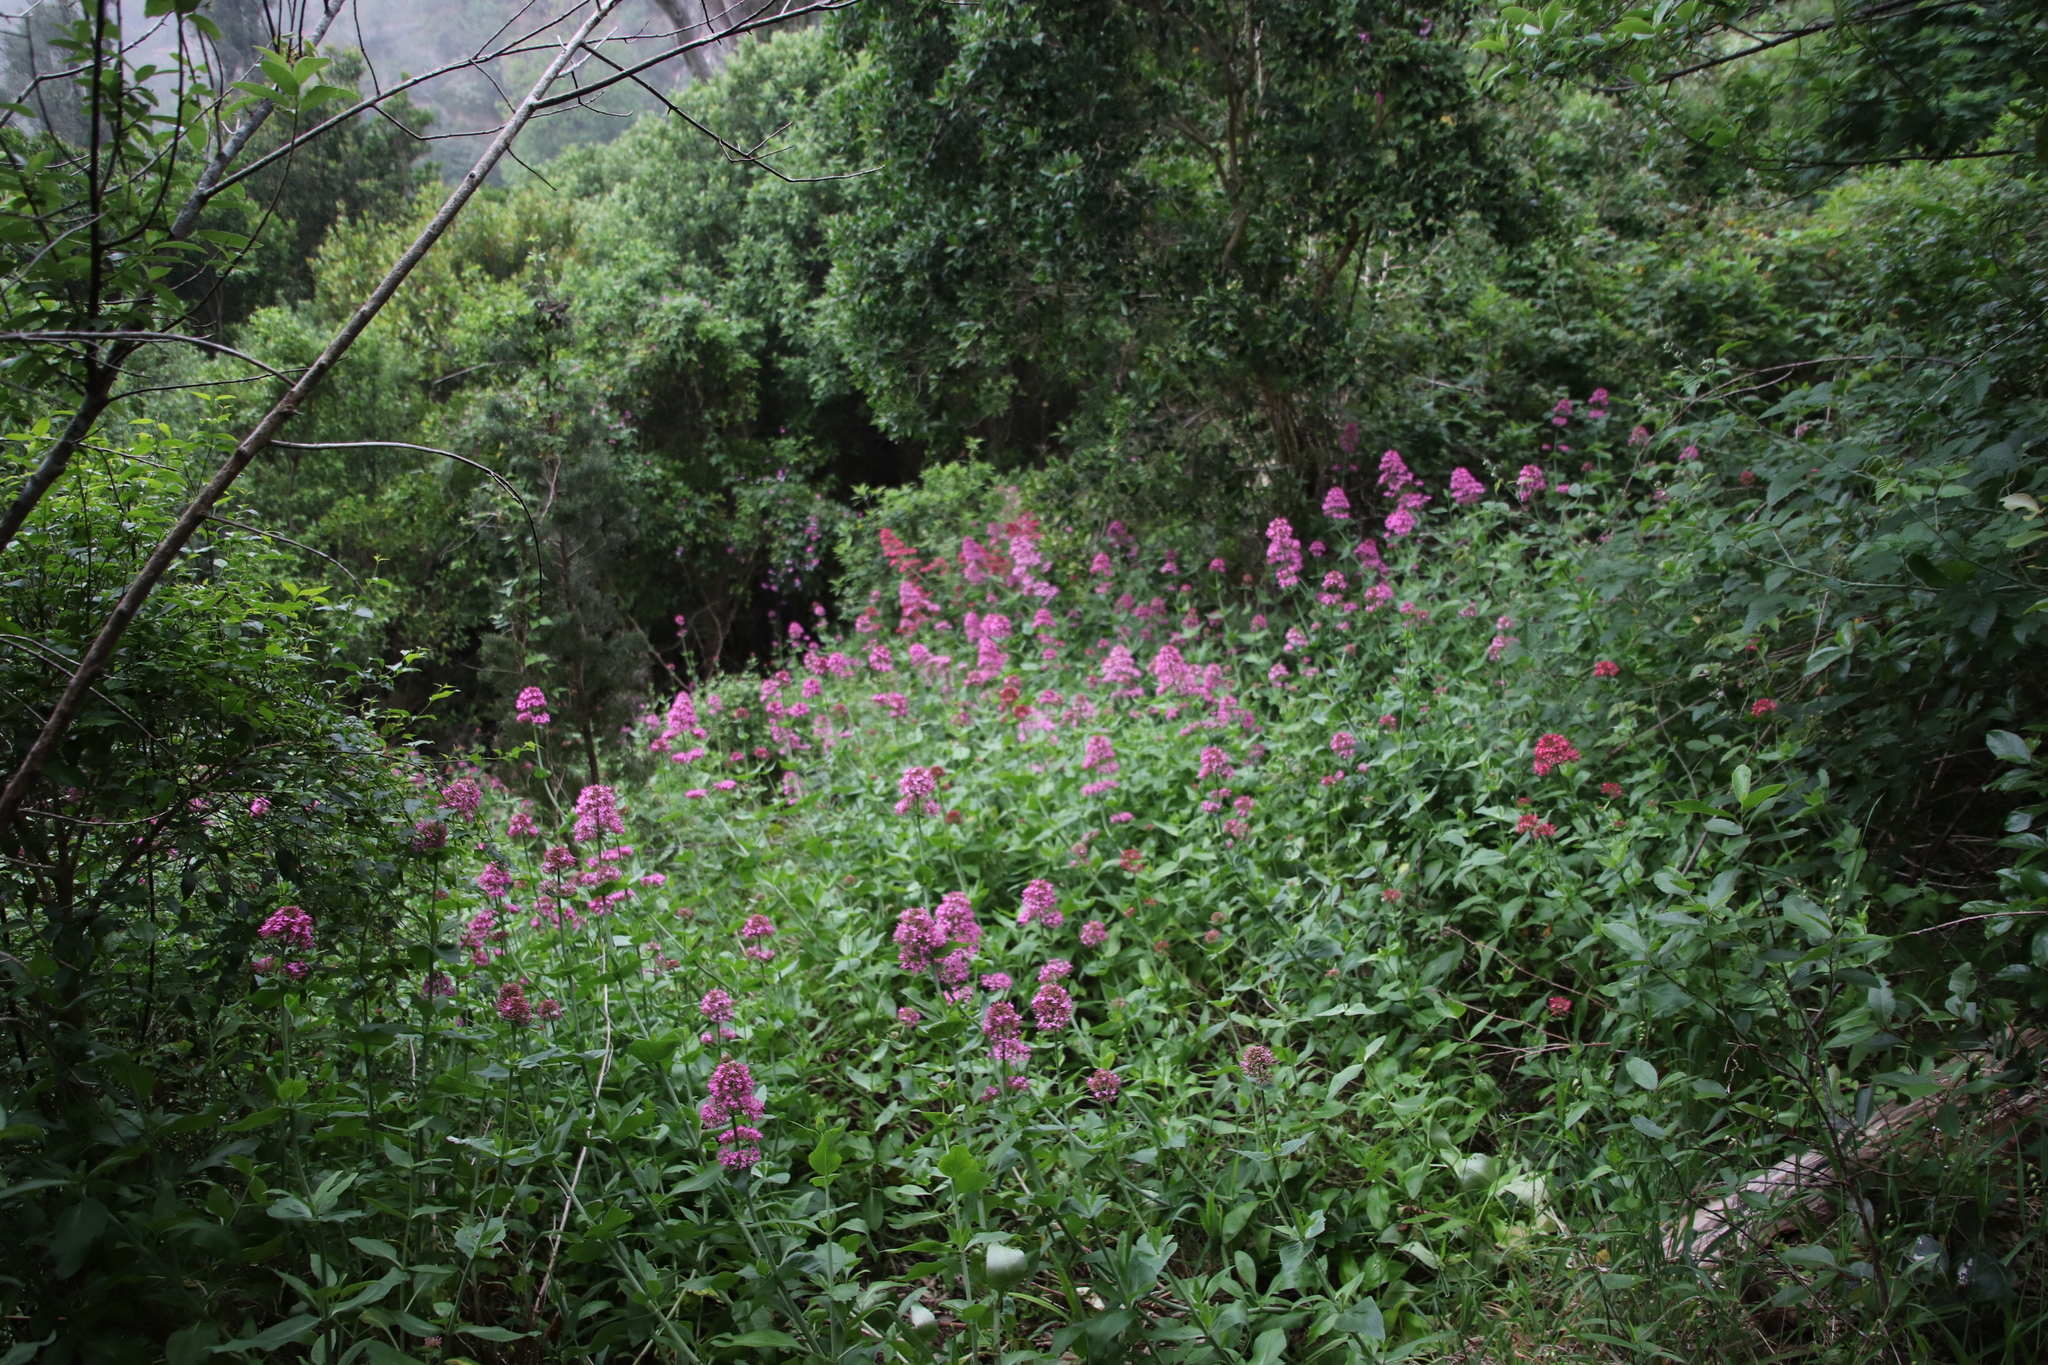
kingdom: Plantae
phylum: Tracheophyta
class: Magnoliopsida
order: Dipsacales
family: Caprifoliaceae
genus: Centranthus
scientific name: Centranthus ruber
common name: Red valerian
